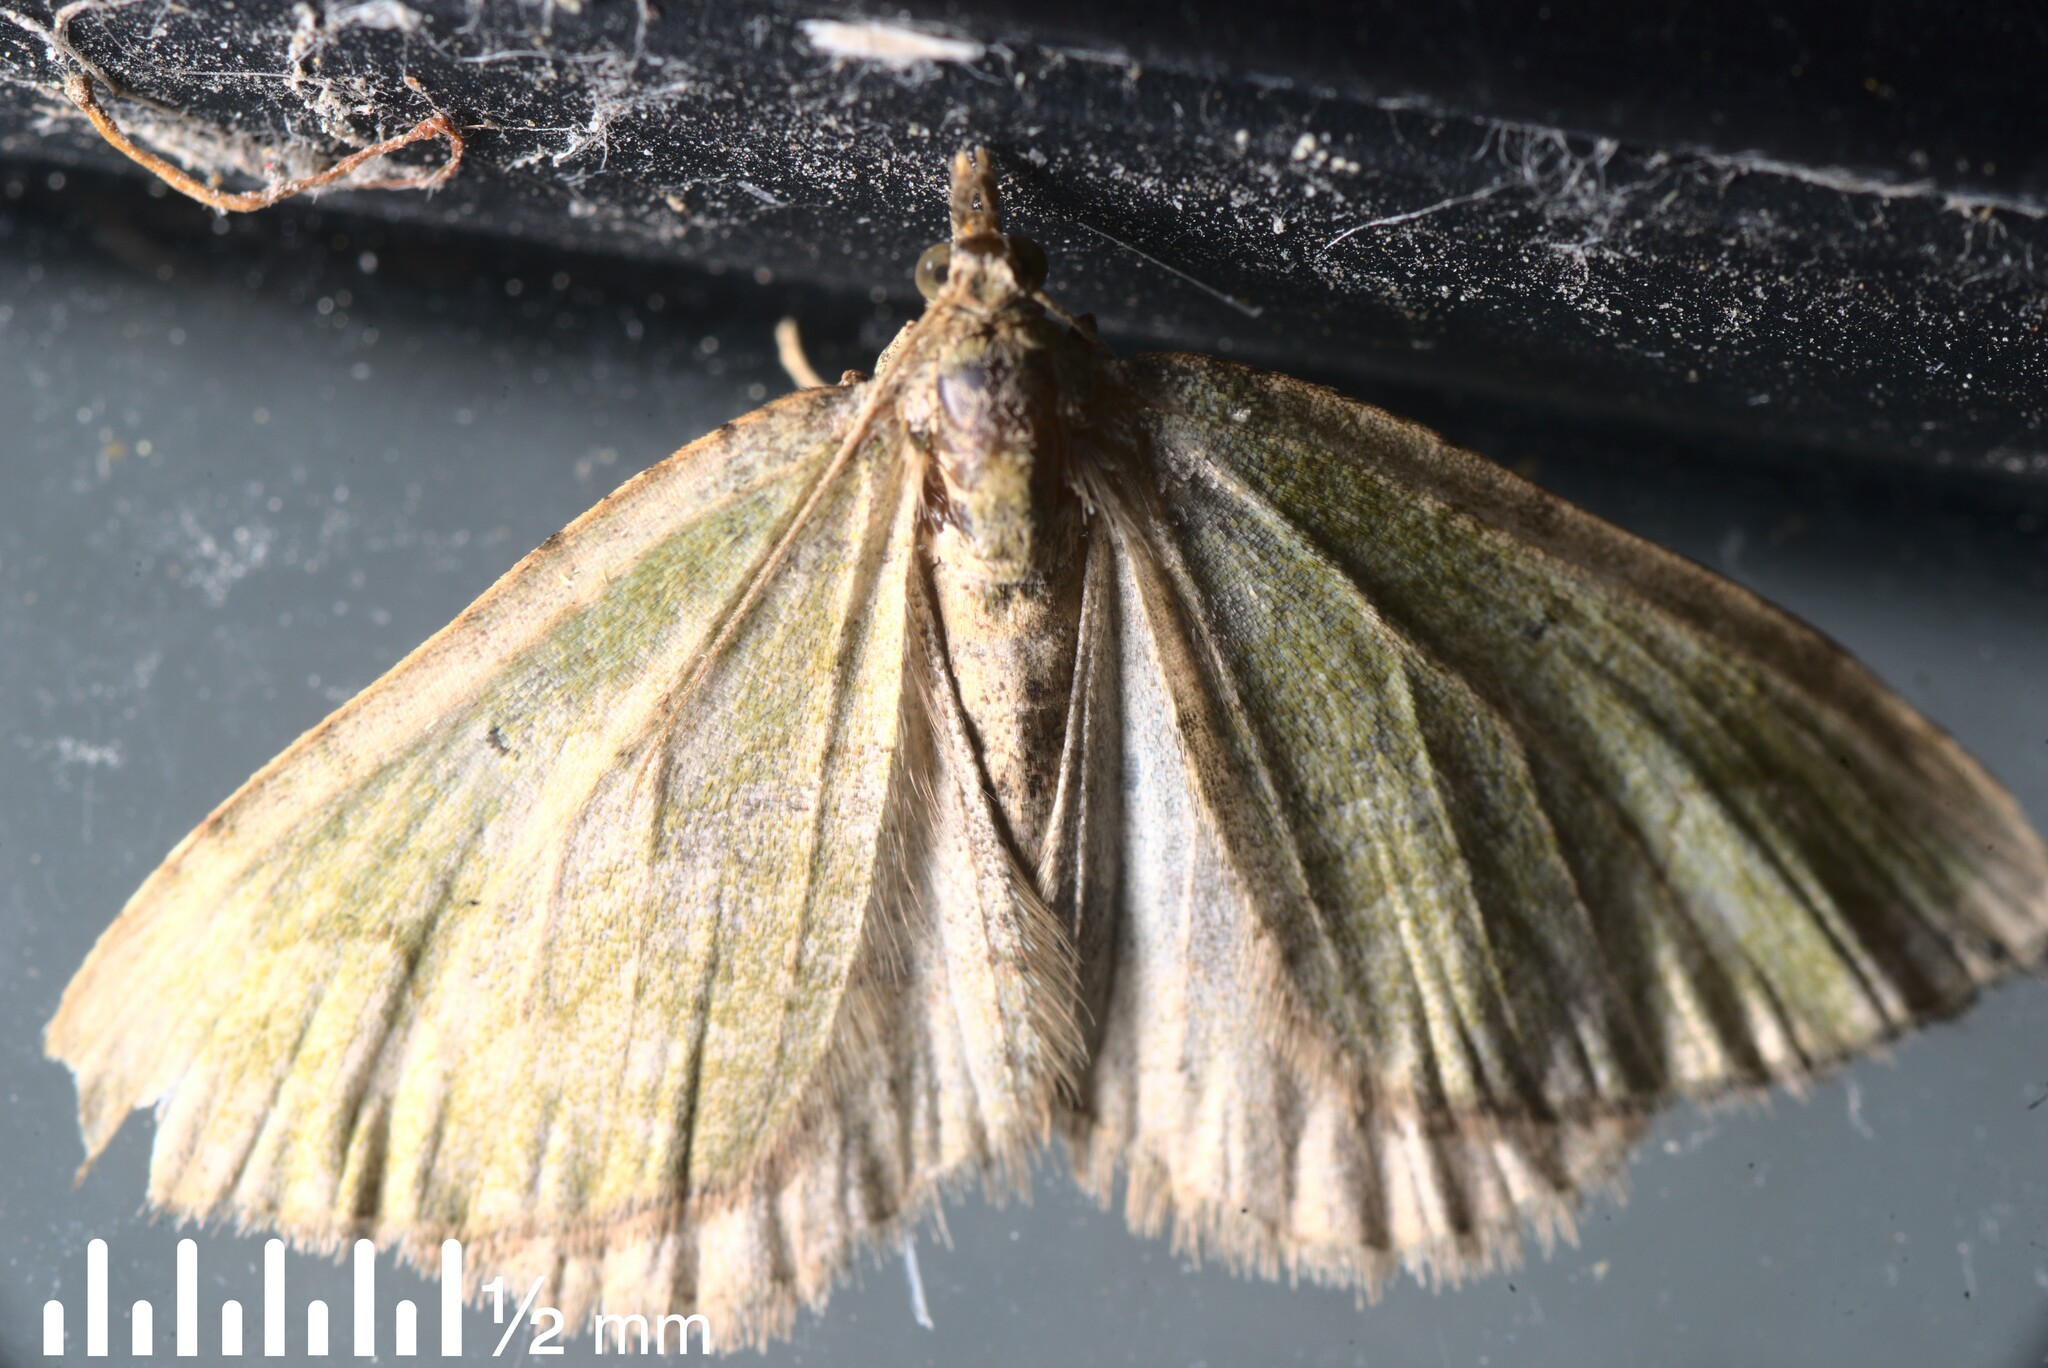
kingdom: Animalia
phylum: Arthropoda
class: Insecta
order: Lepidoptera
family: Geometridae
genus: Epyaxa
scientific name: Epyaxa rosearia
